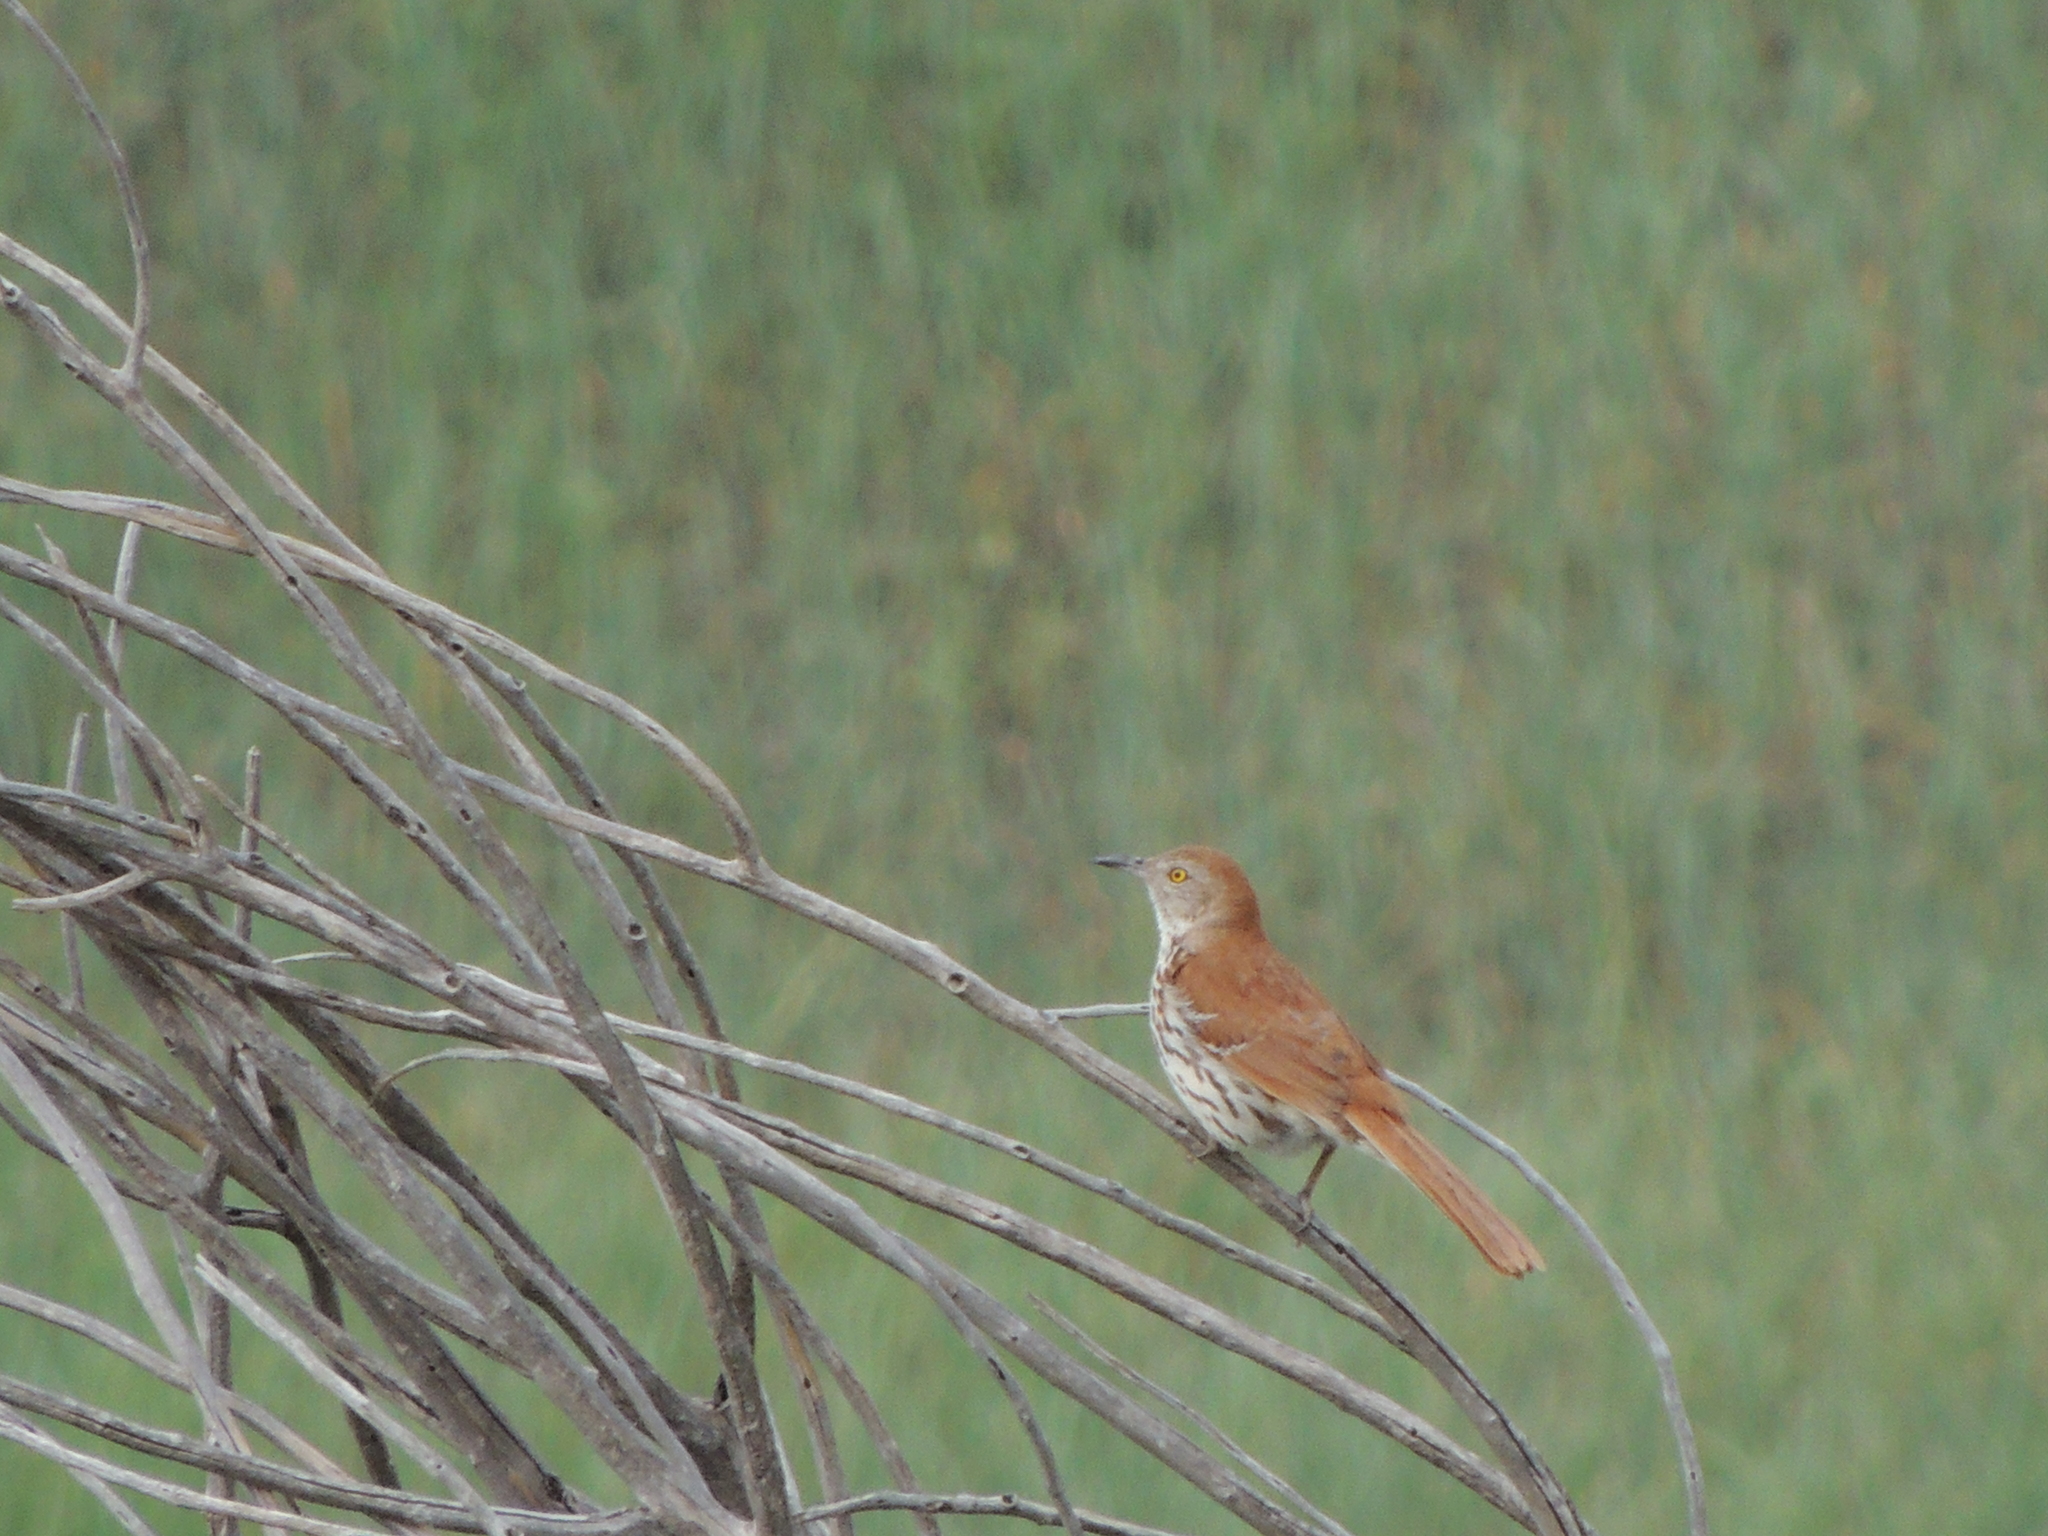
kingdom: Animalia
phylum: Chordata
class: Aves
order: Passeriformes
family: Mimidae
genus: Toxostoma
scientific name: Toxostoma rufum
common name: Brown thrasher
